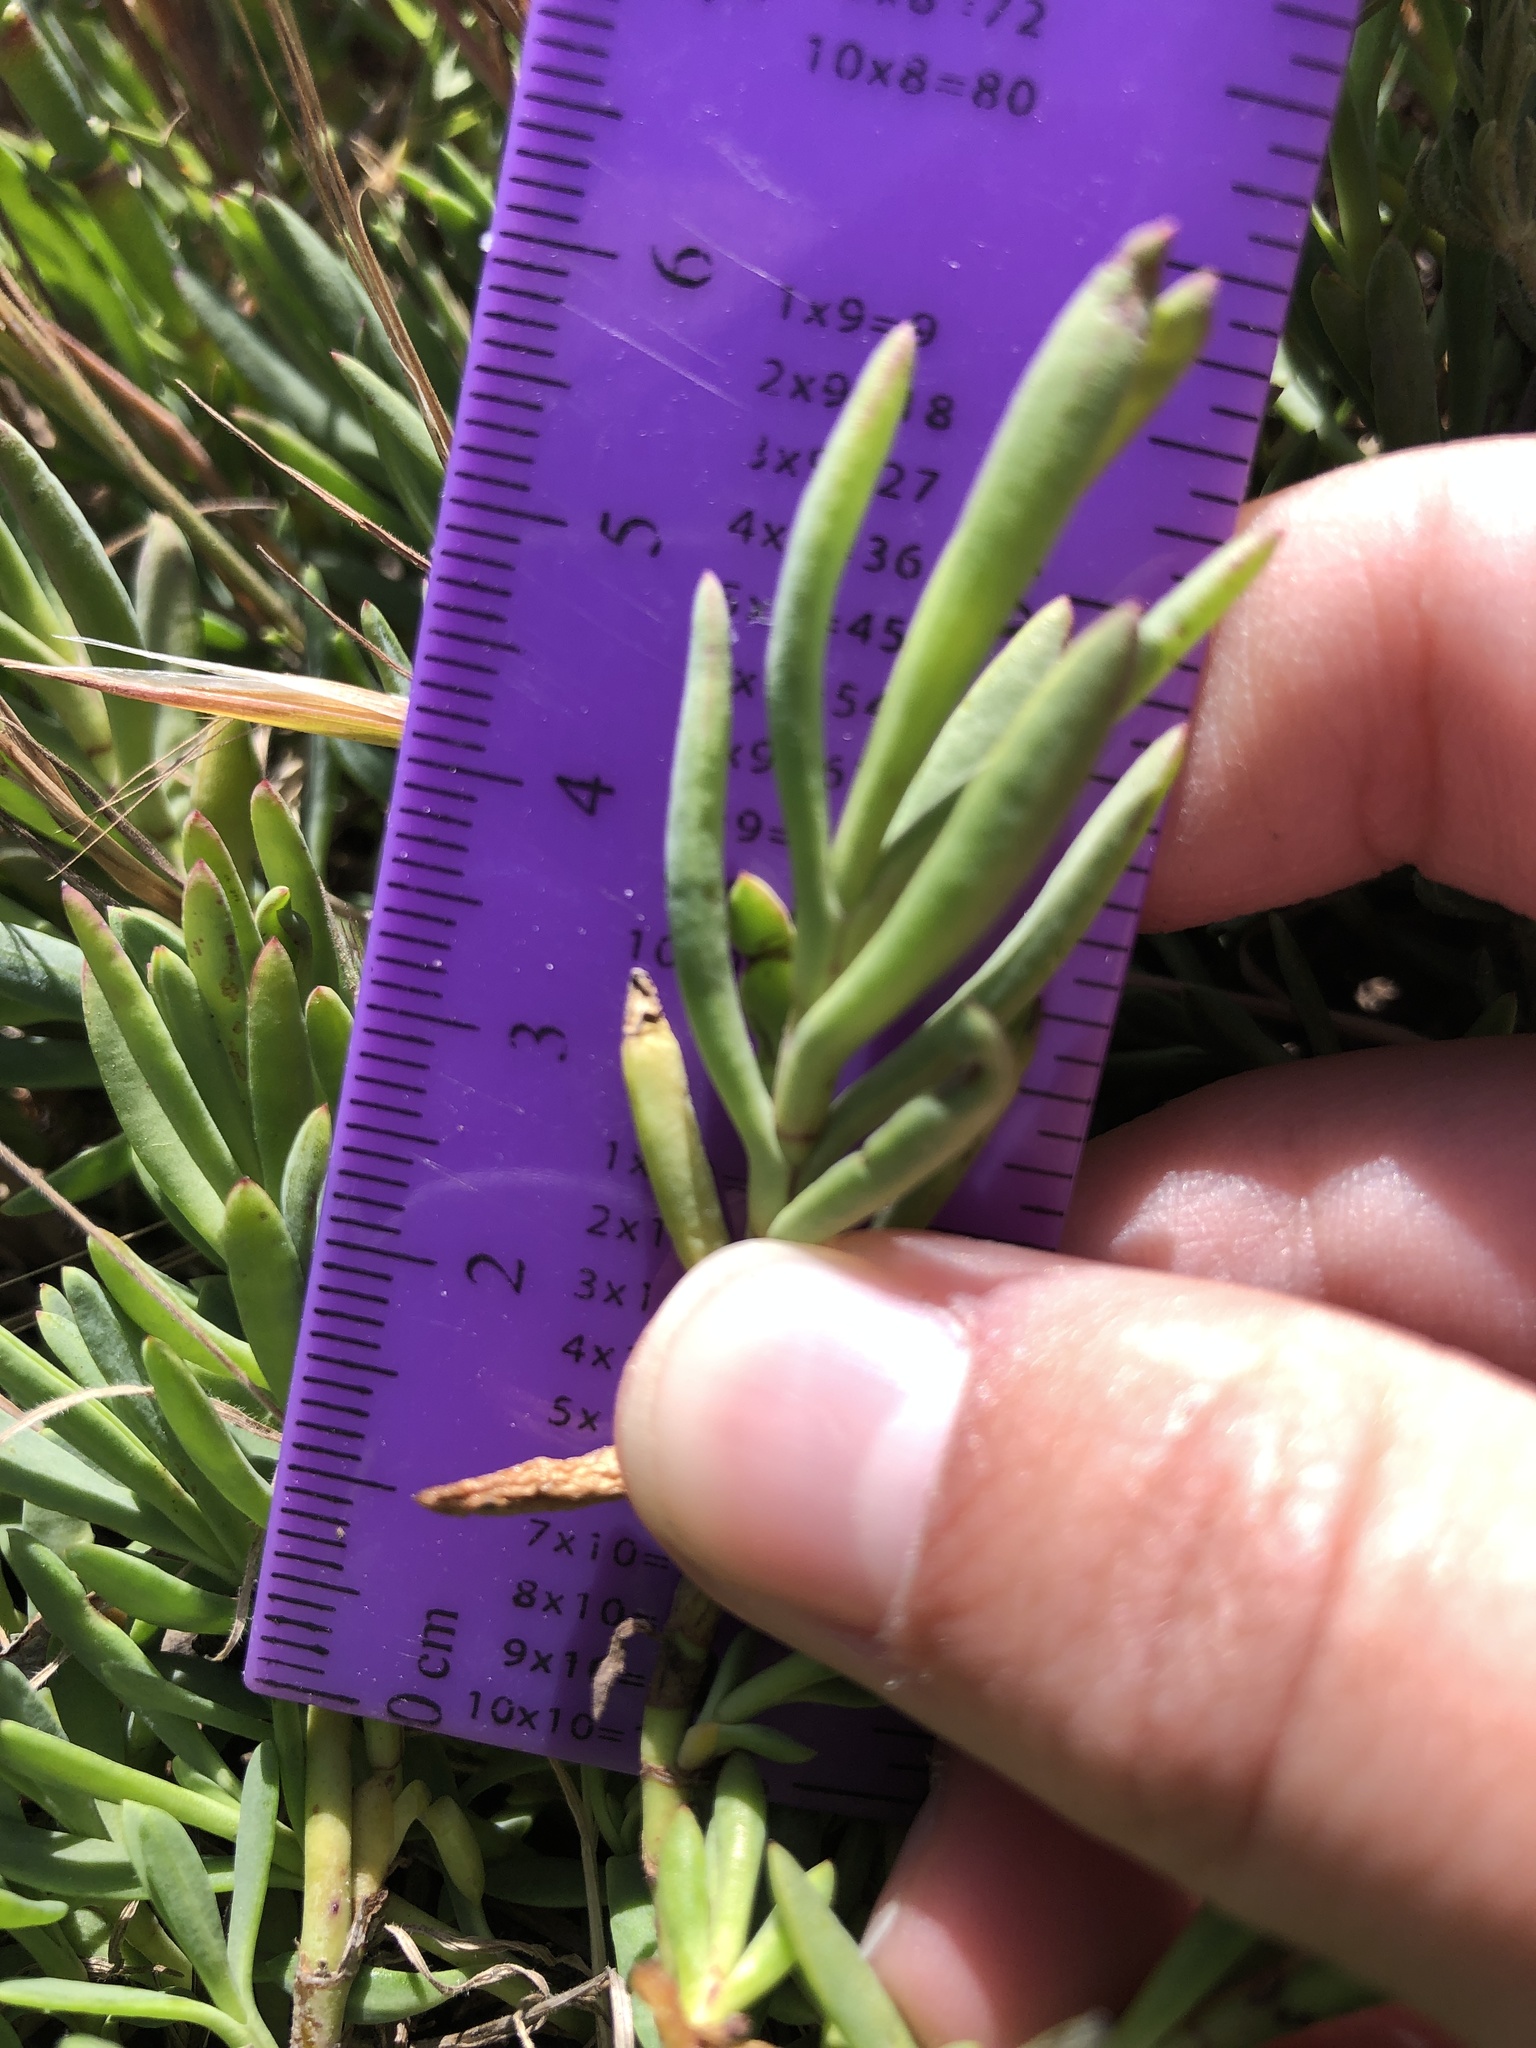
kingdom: Plantae
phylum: Tracheophyta
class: Magnoliopsida
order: Asterales
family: Asteraceae
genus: Jaumea
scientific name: Jaumea carnosa
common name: Fleshy jaumea
